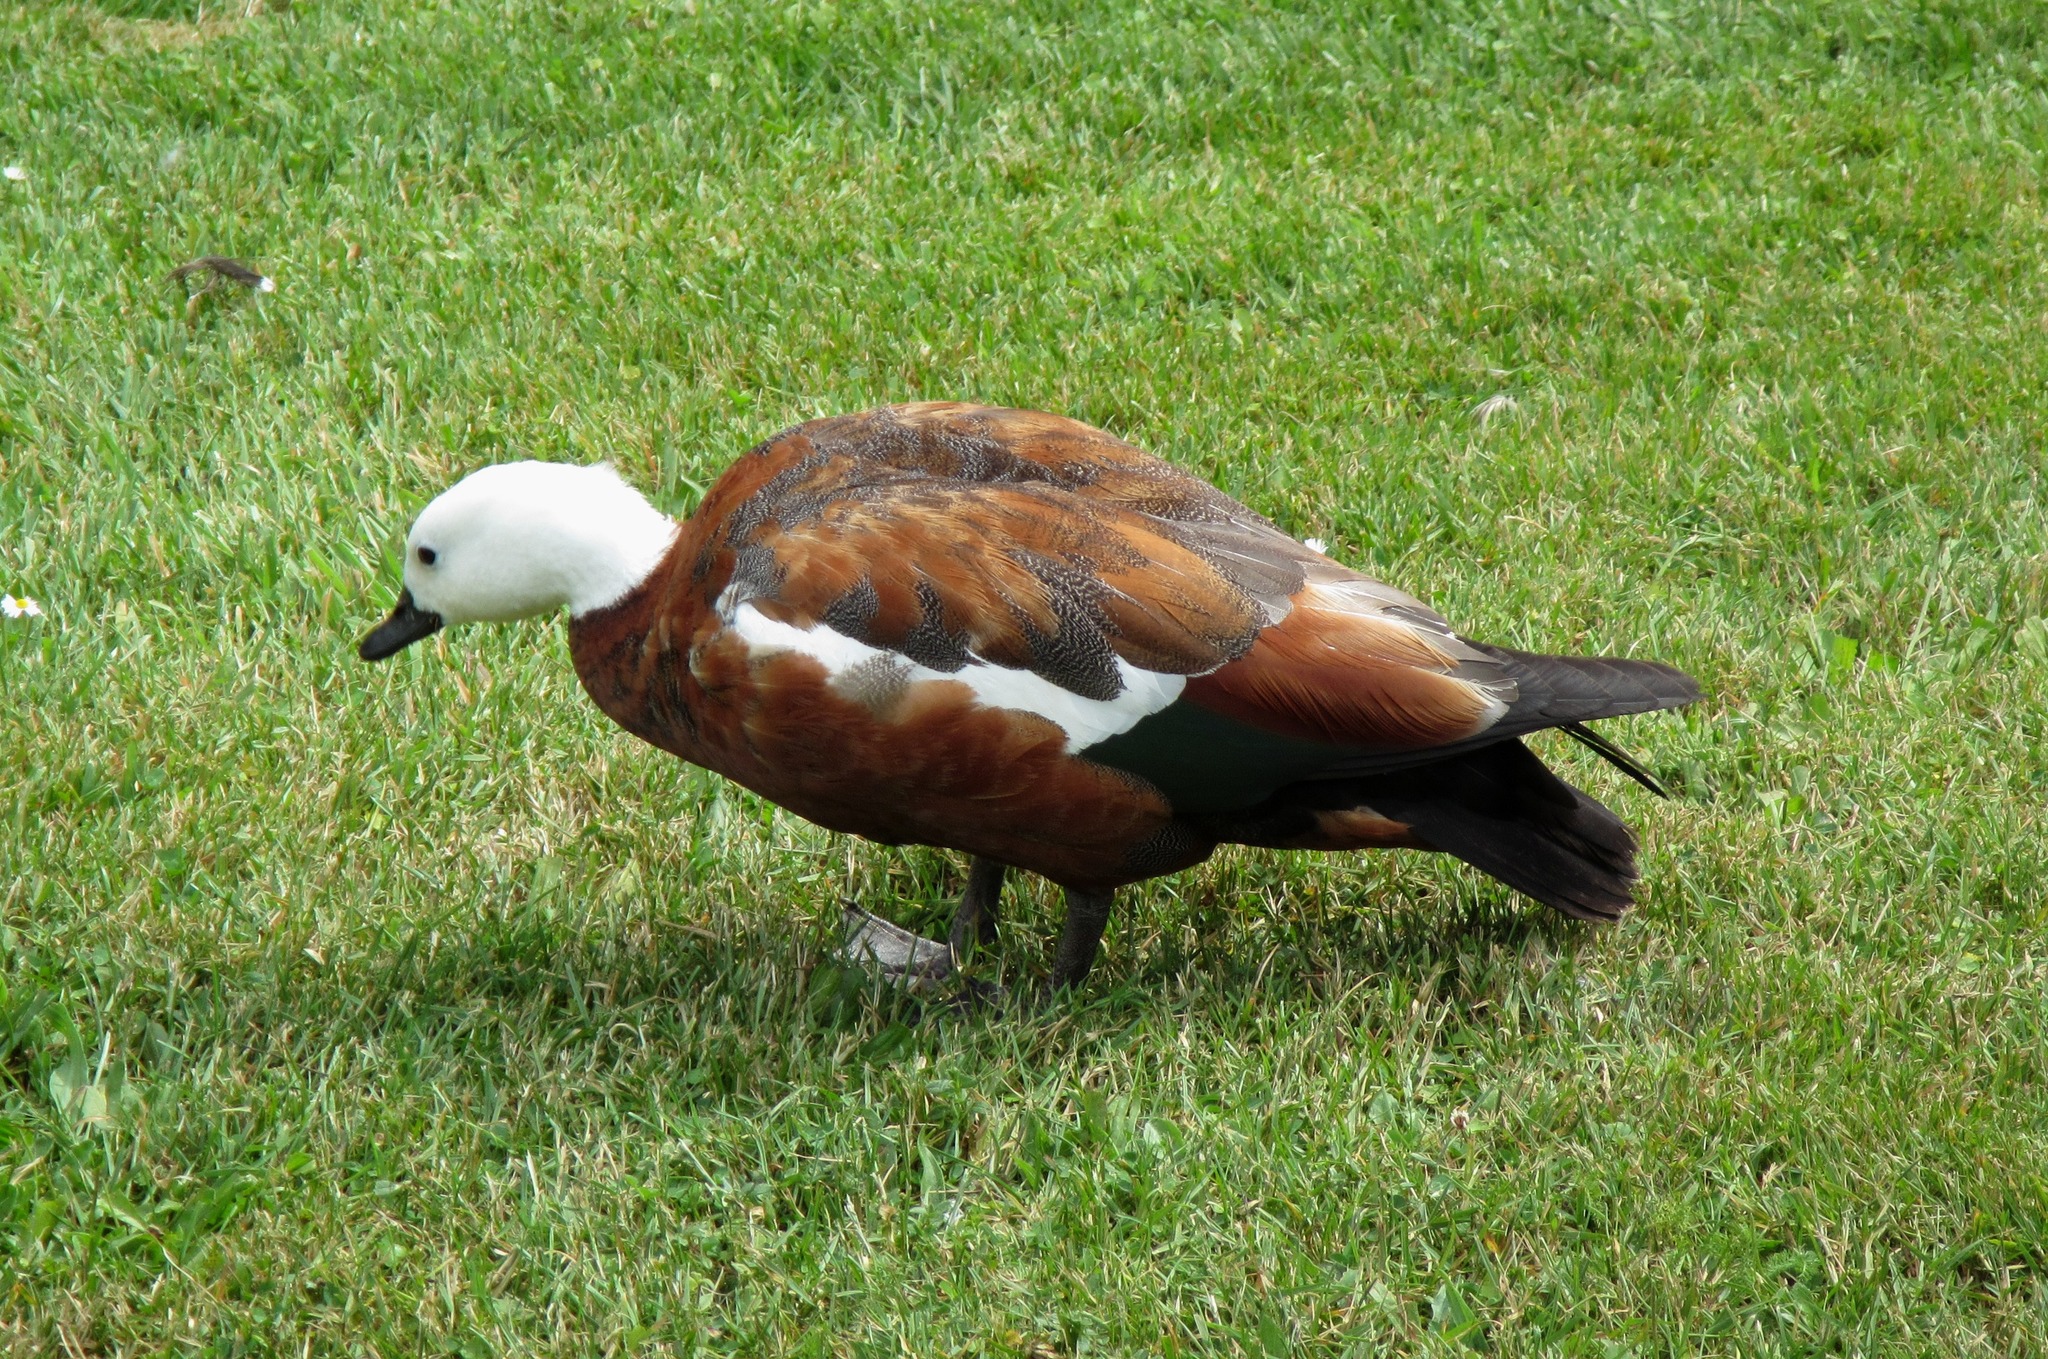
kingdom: Animalia
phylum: Chordata
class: Aves
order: Anseriformes
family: Anatidae
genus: Tadorna
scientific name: Tadorna variegata
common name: Paradise shelduck
